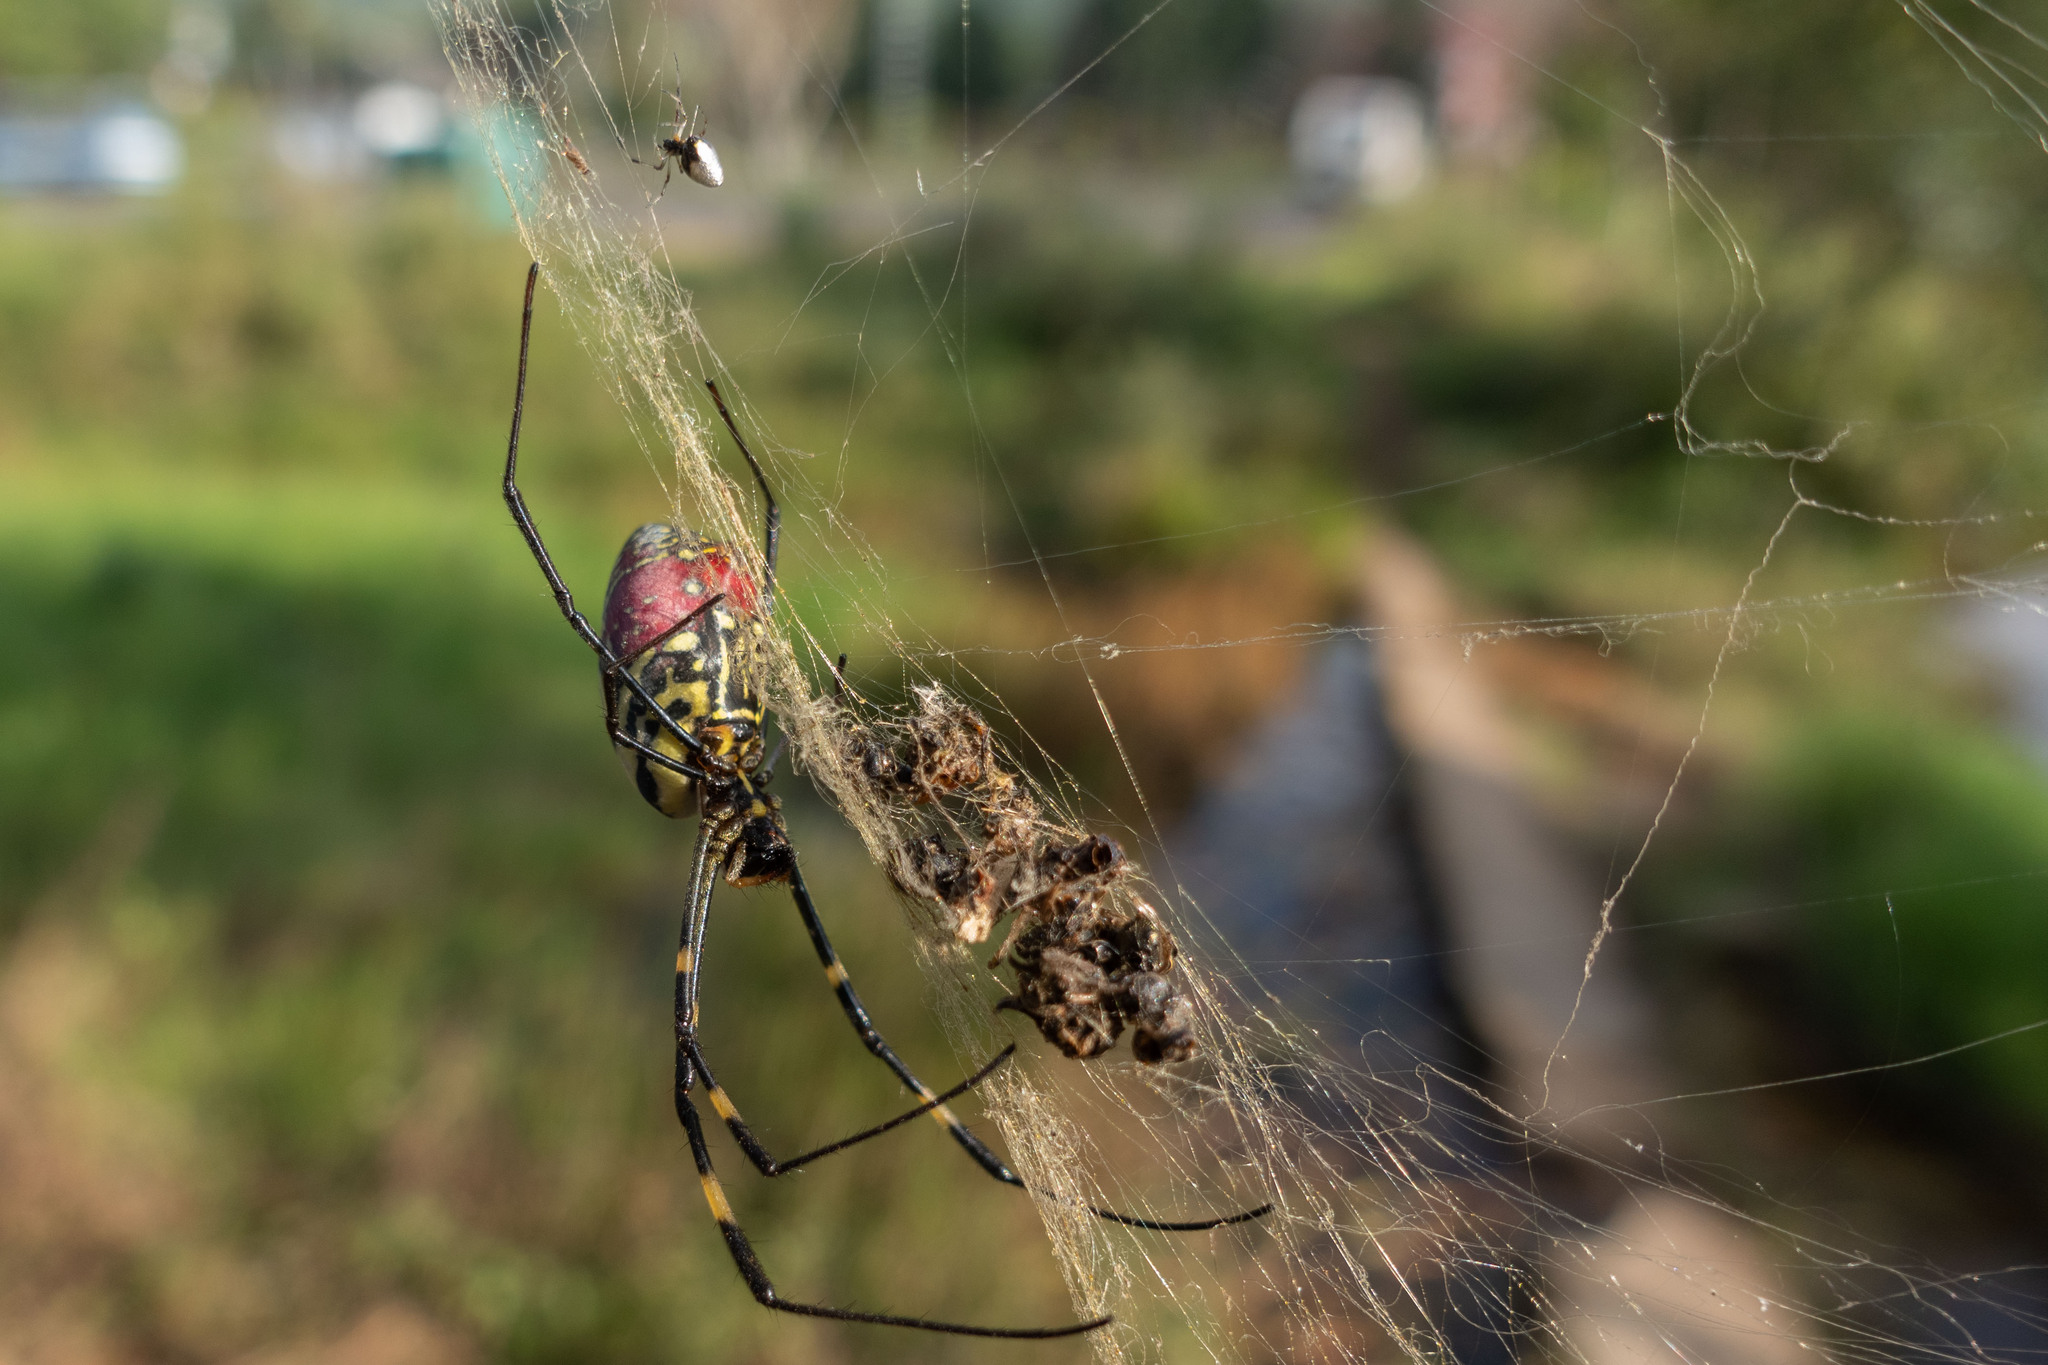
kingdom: Animalia
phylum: Arthropoda
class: Arachnida
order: Araneae
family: Araneidae
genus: Trichonephila
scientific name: Trichonephila clavata
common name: Jorō spider
